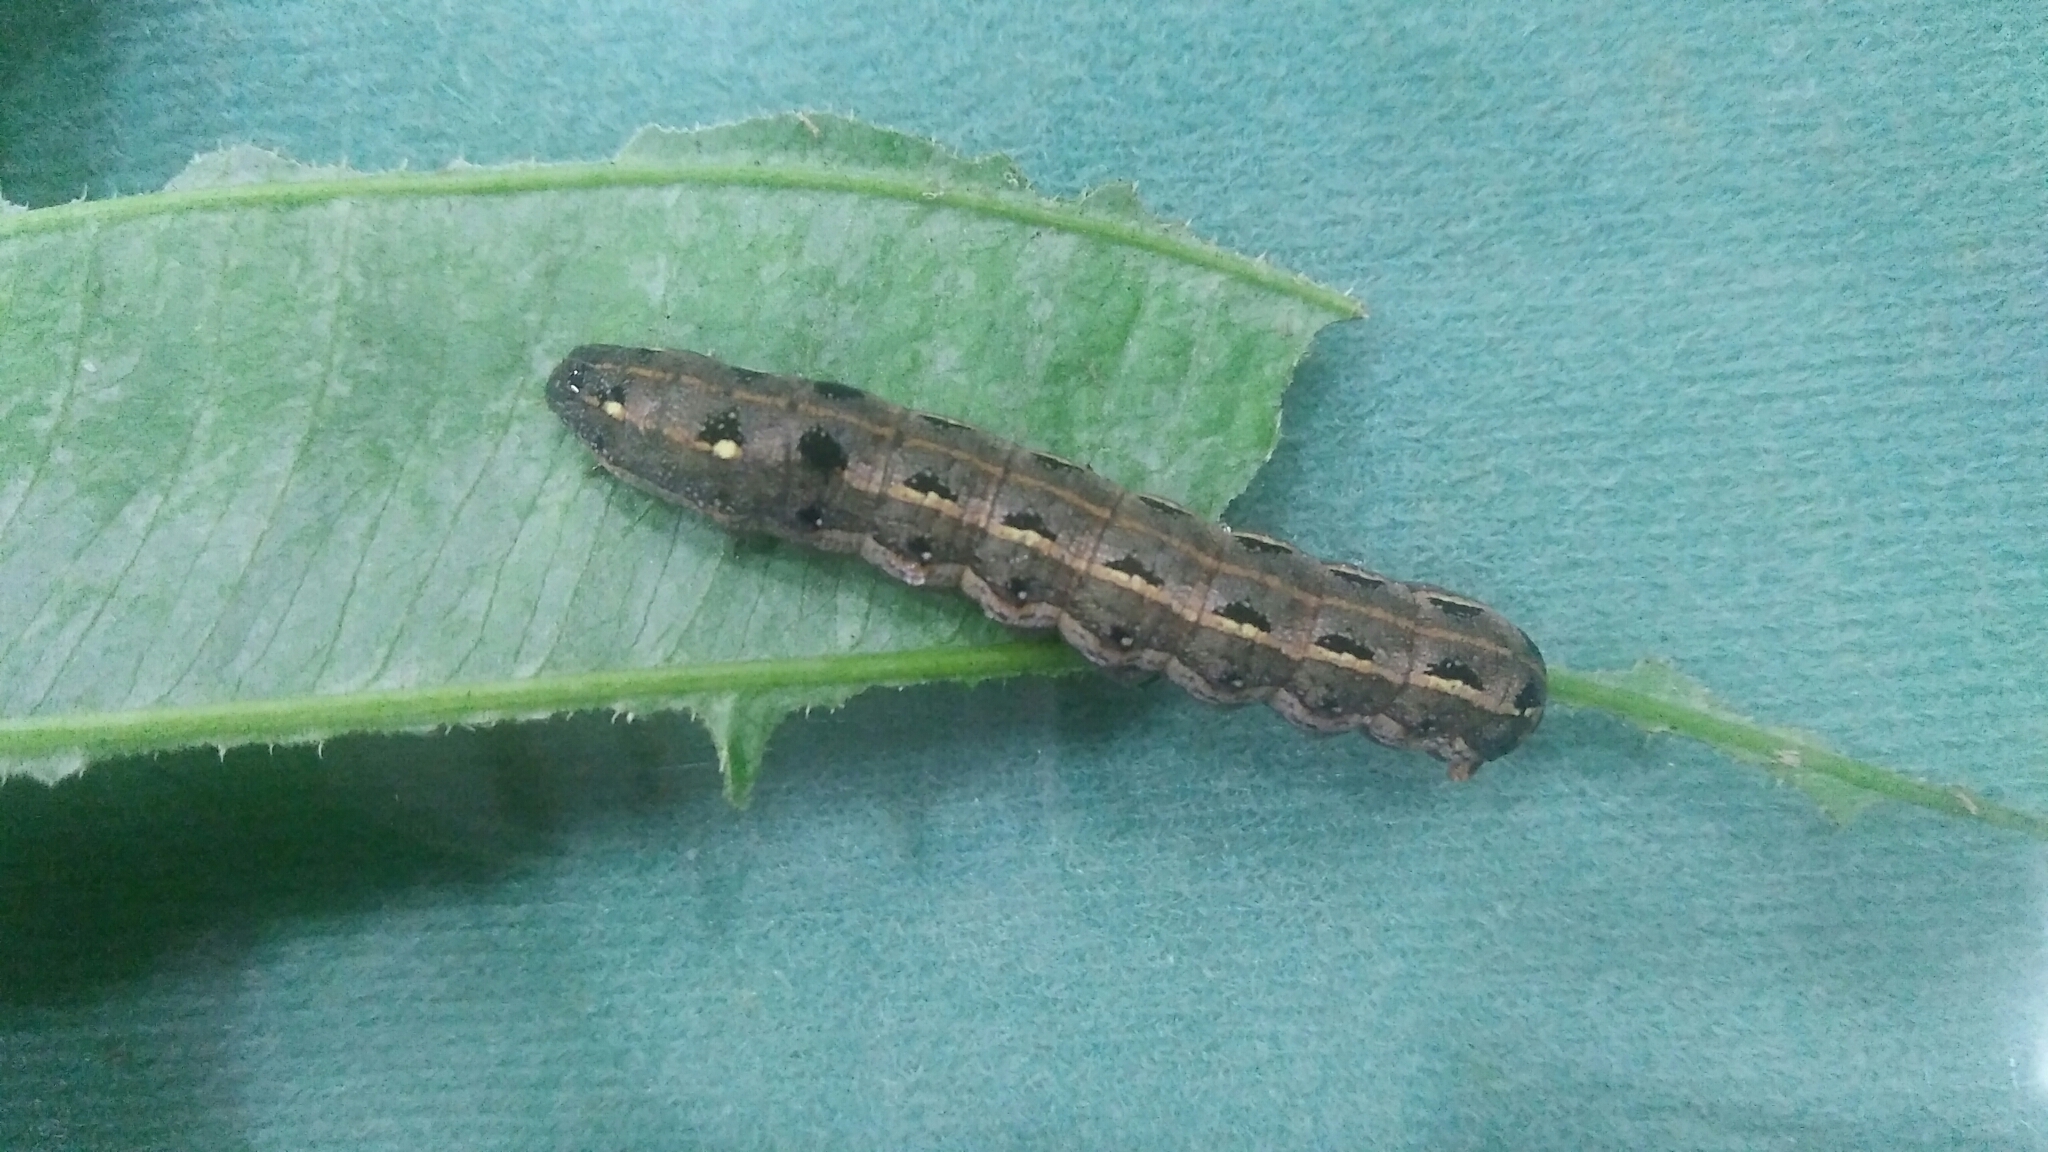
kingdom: Animalia
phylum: Arthropoda
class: Insecta
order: Lepidoptera
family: Noctuidae
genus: Spodoptera
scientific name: Spodoptera litura
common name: Asian cotton leafworm
